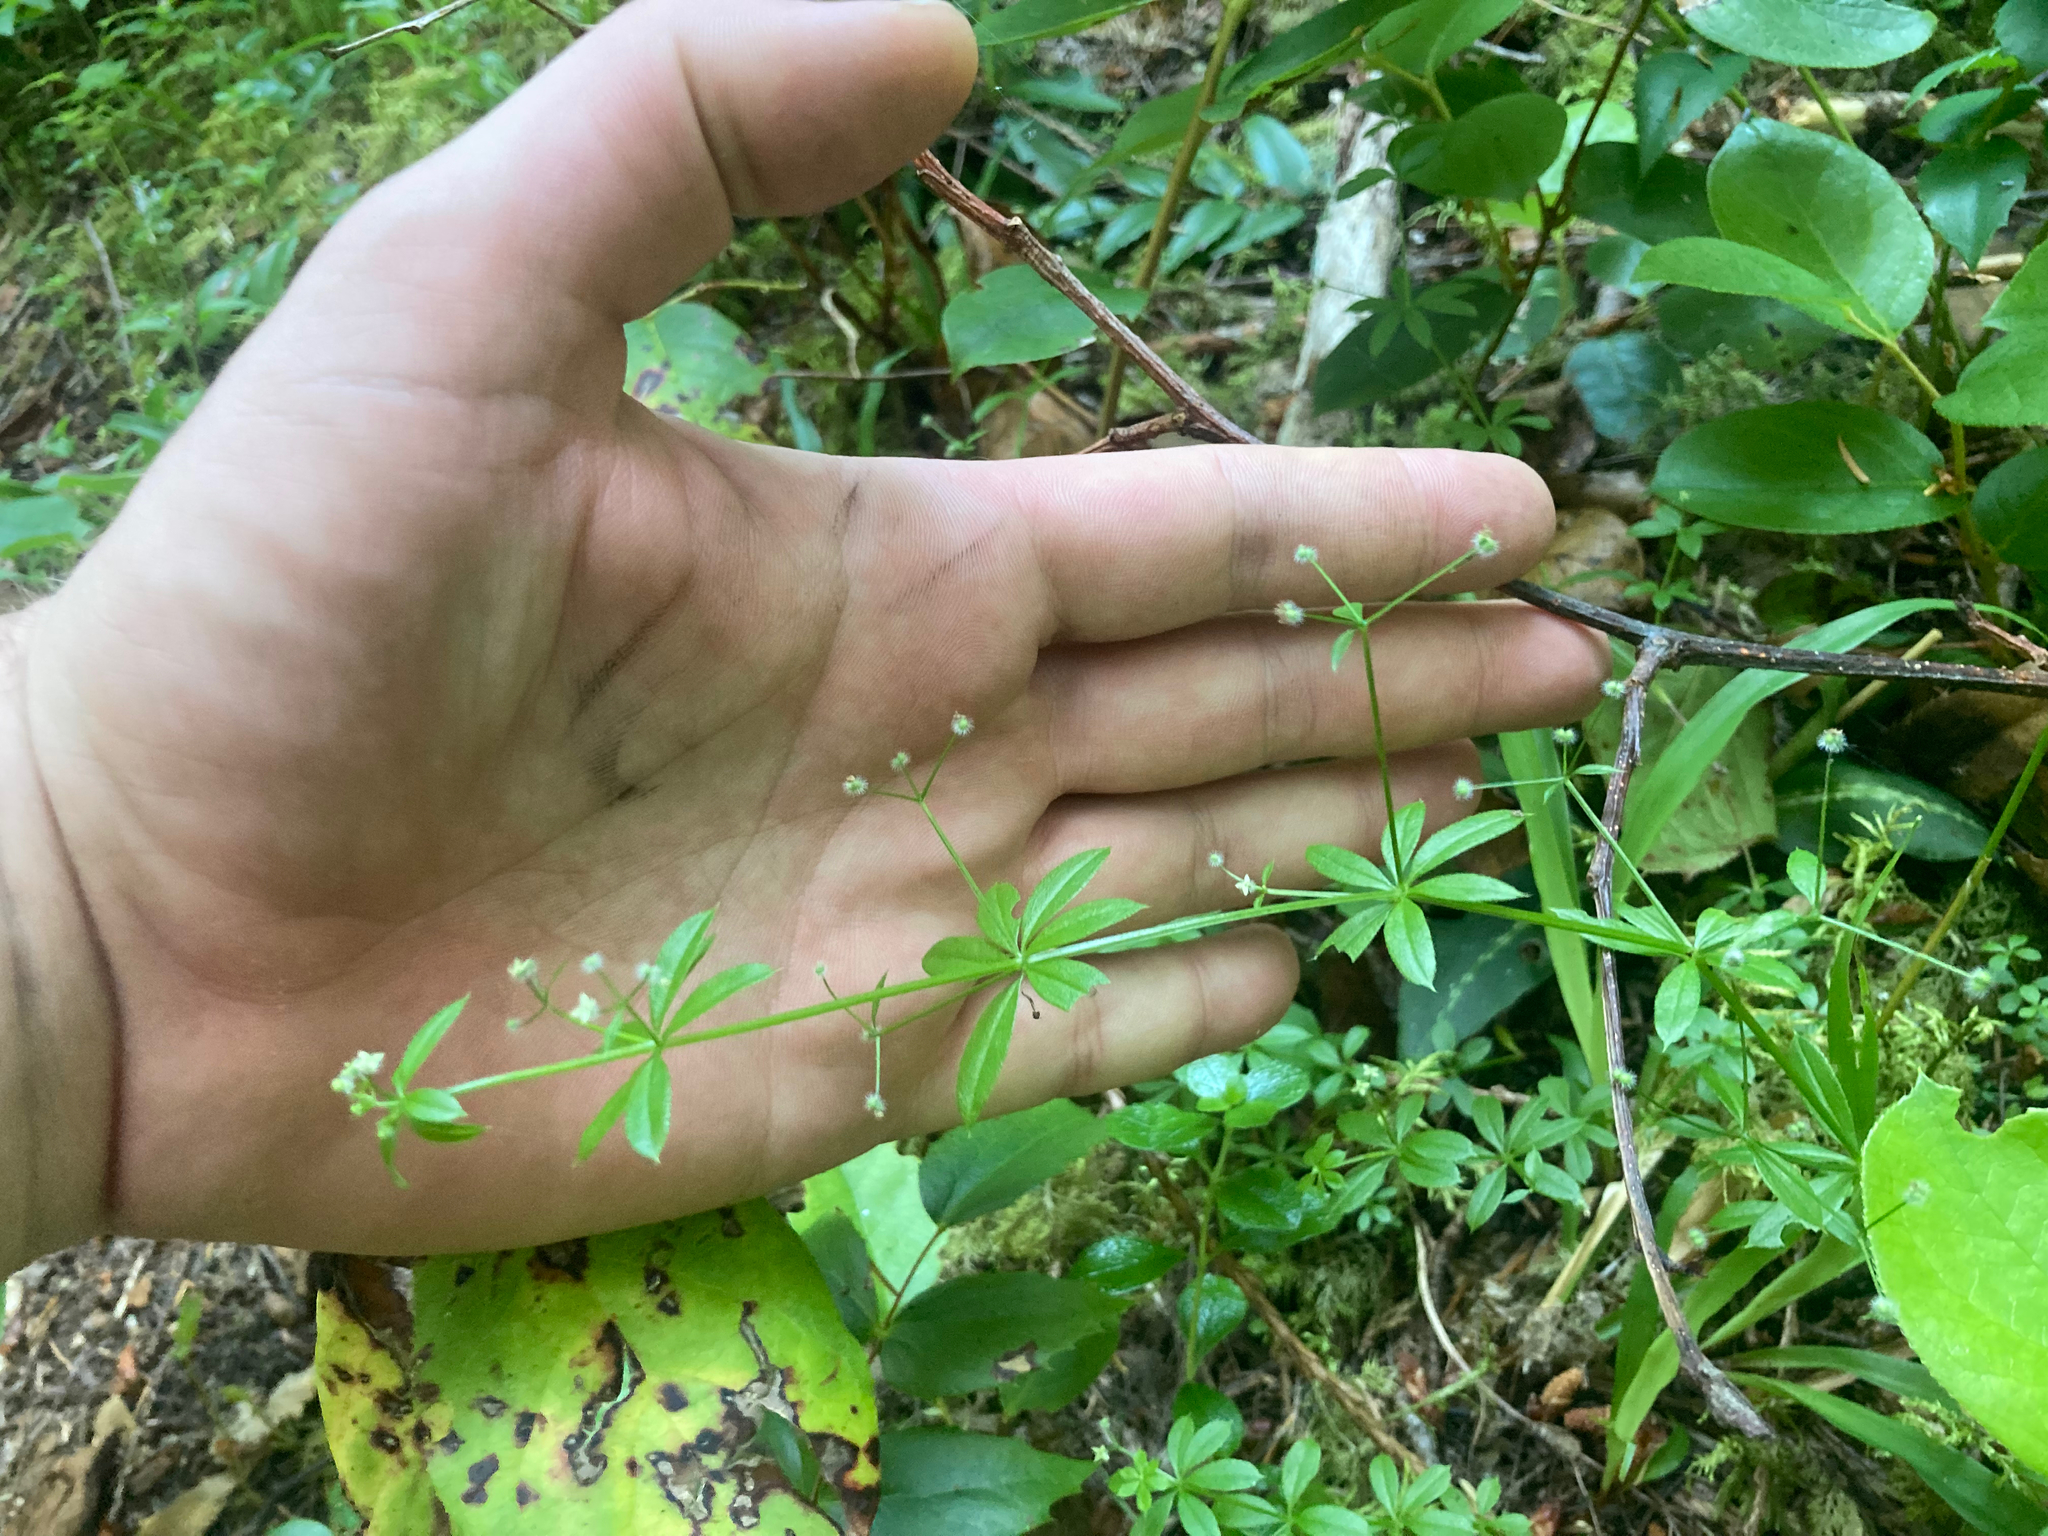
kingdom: Plantae
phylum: Tracheophyta
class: Magnoliopsida
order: Gentianales
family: Rubiaceae
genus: Galium
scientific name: Galium triflorum
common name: Fragrant bedstraw
